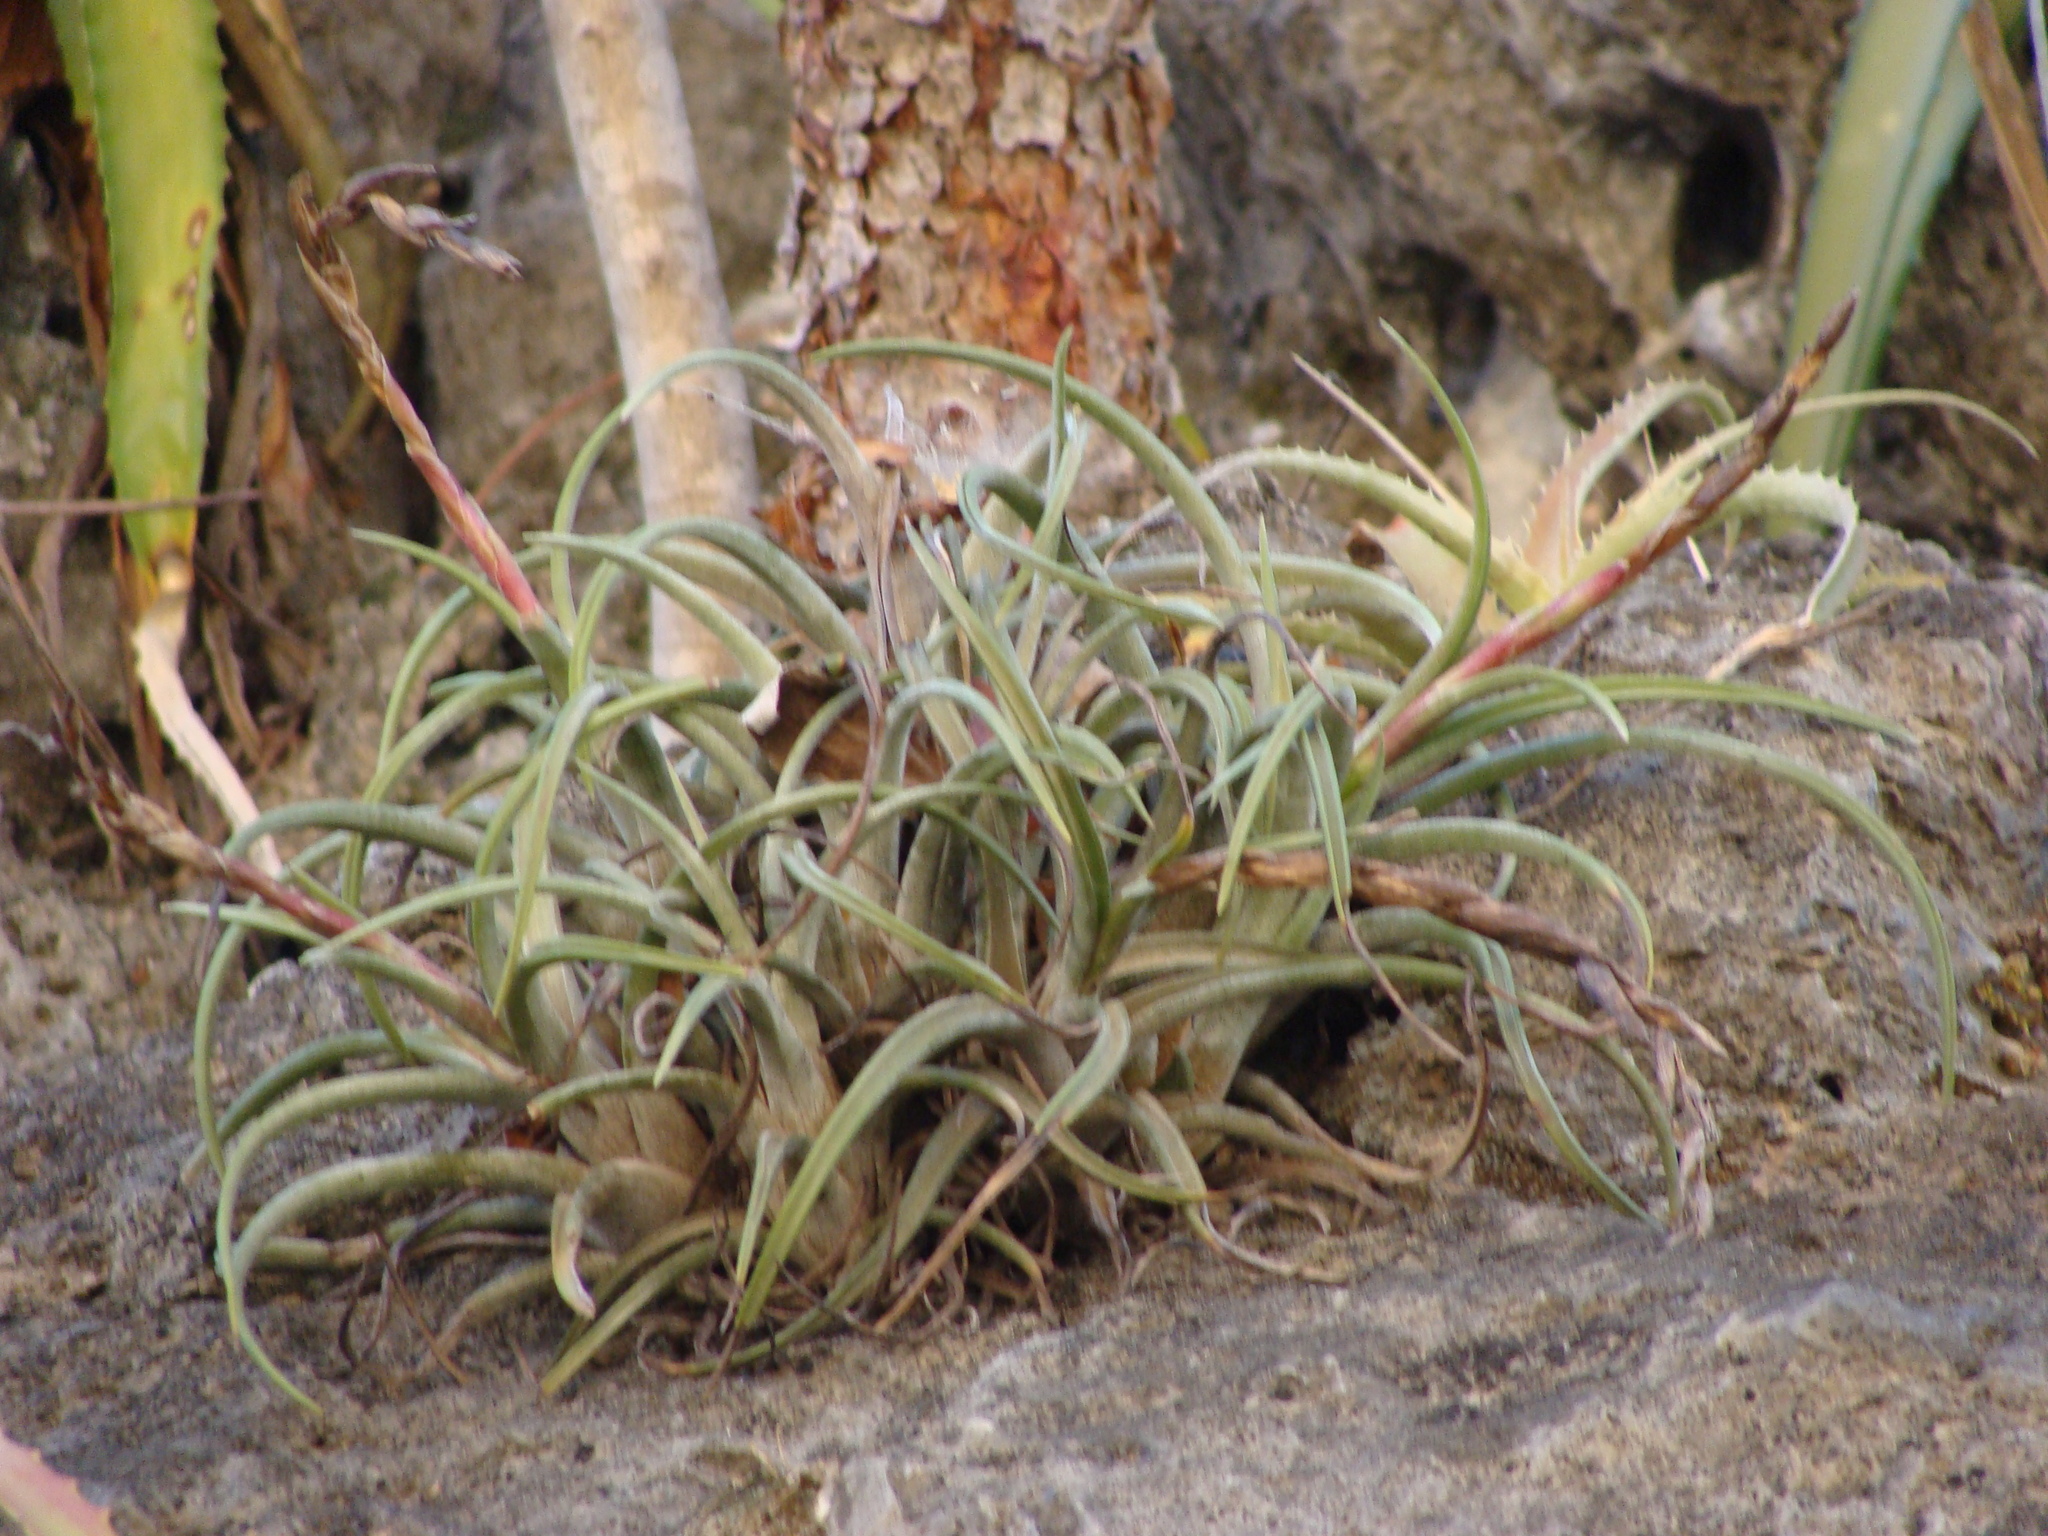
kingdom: Plantae
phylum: Tracheophyta
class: Liliopsida
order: Poales
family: Bromeliaceae
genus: Tillandsia
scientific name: Tillandsia pueblensis
